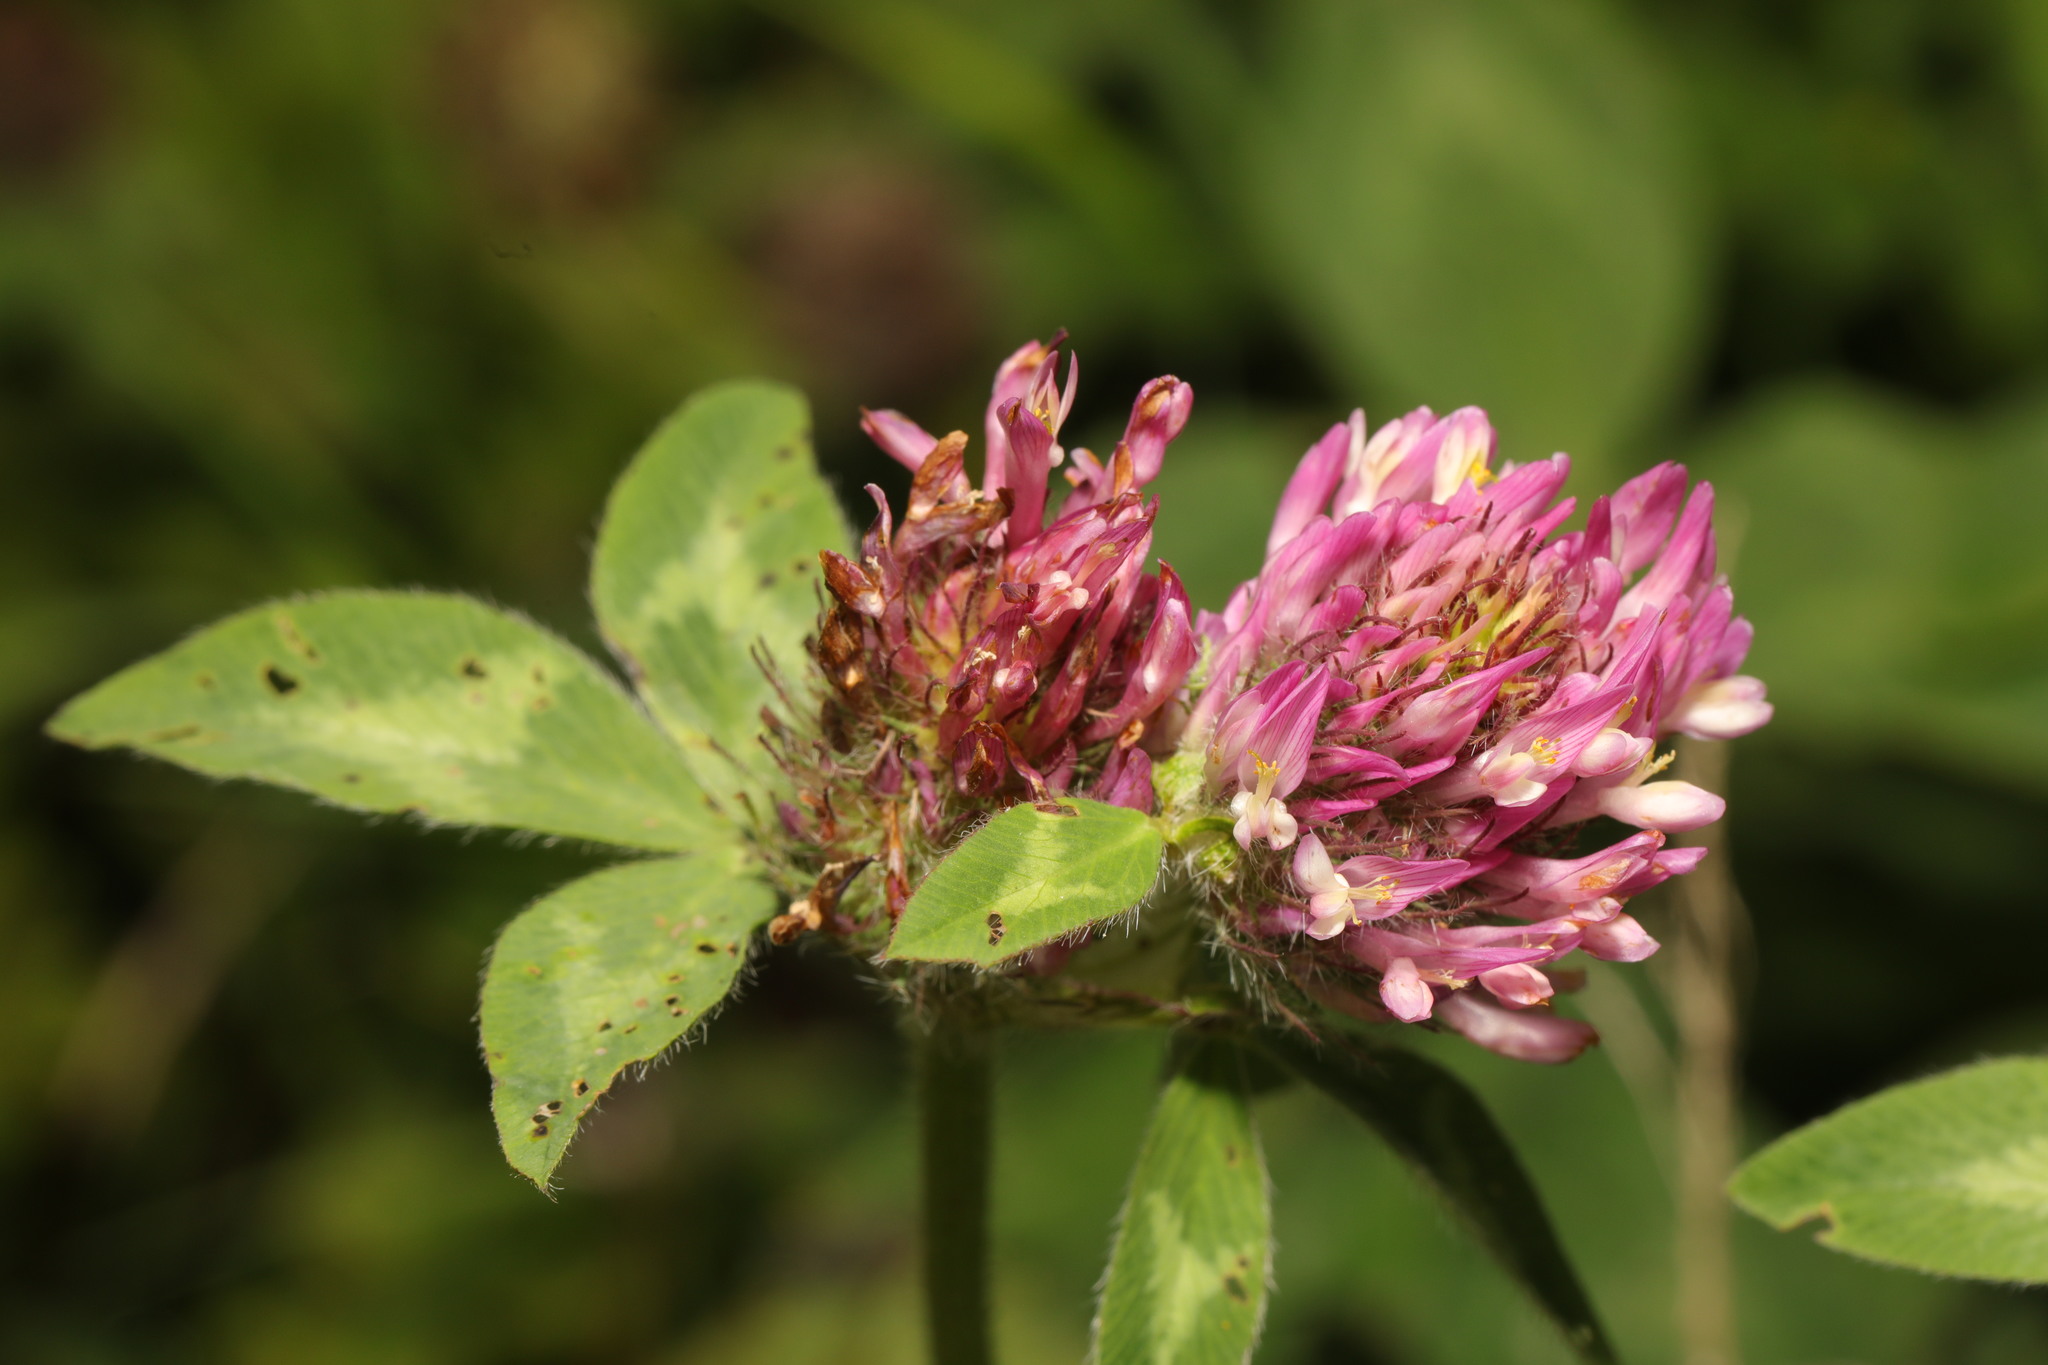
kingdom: Plantae
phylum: Tracheophyta
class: Magnoliopsida
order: Fabales
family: Fabaceae
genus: Trifolium
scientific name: Trifolium pratense
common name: Red clover
